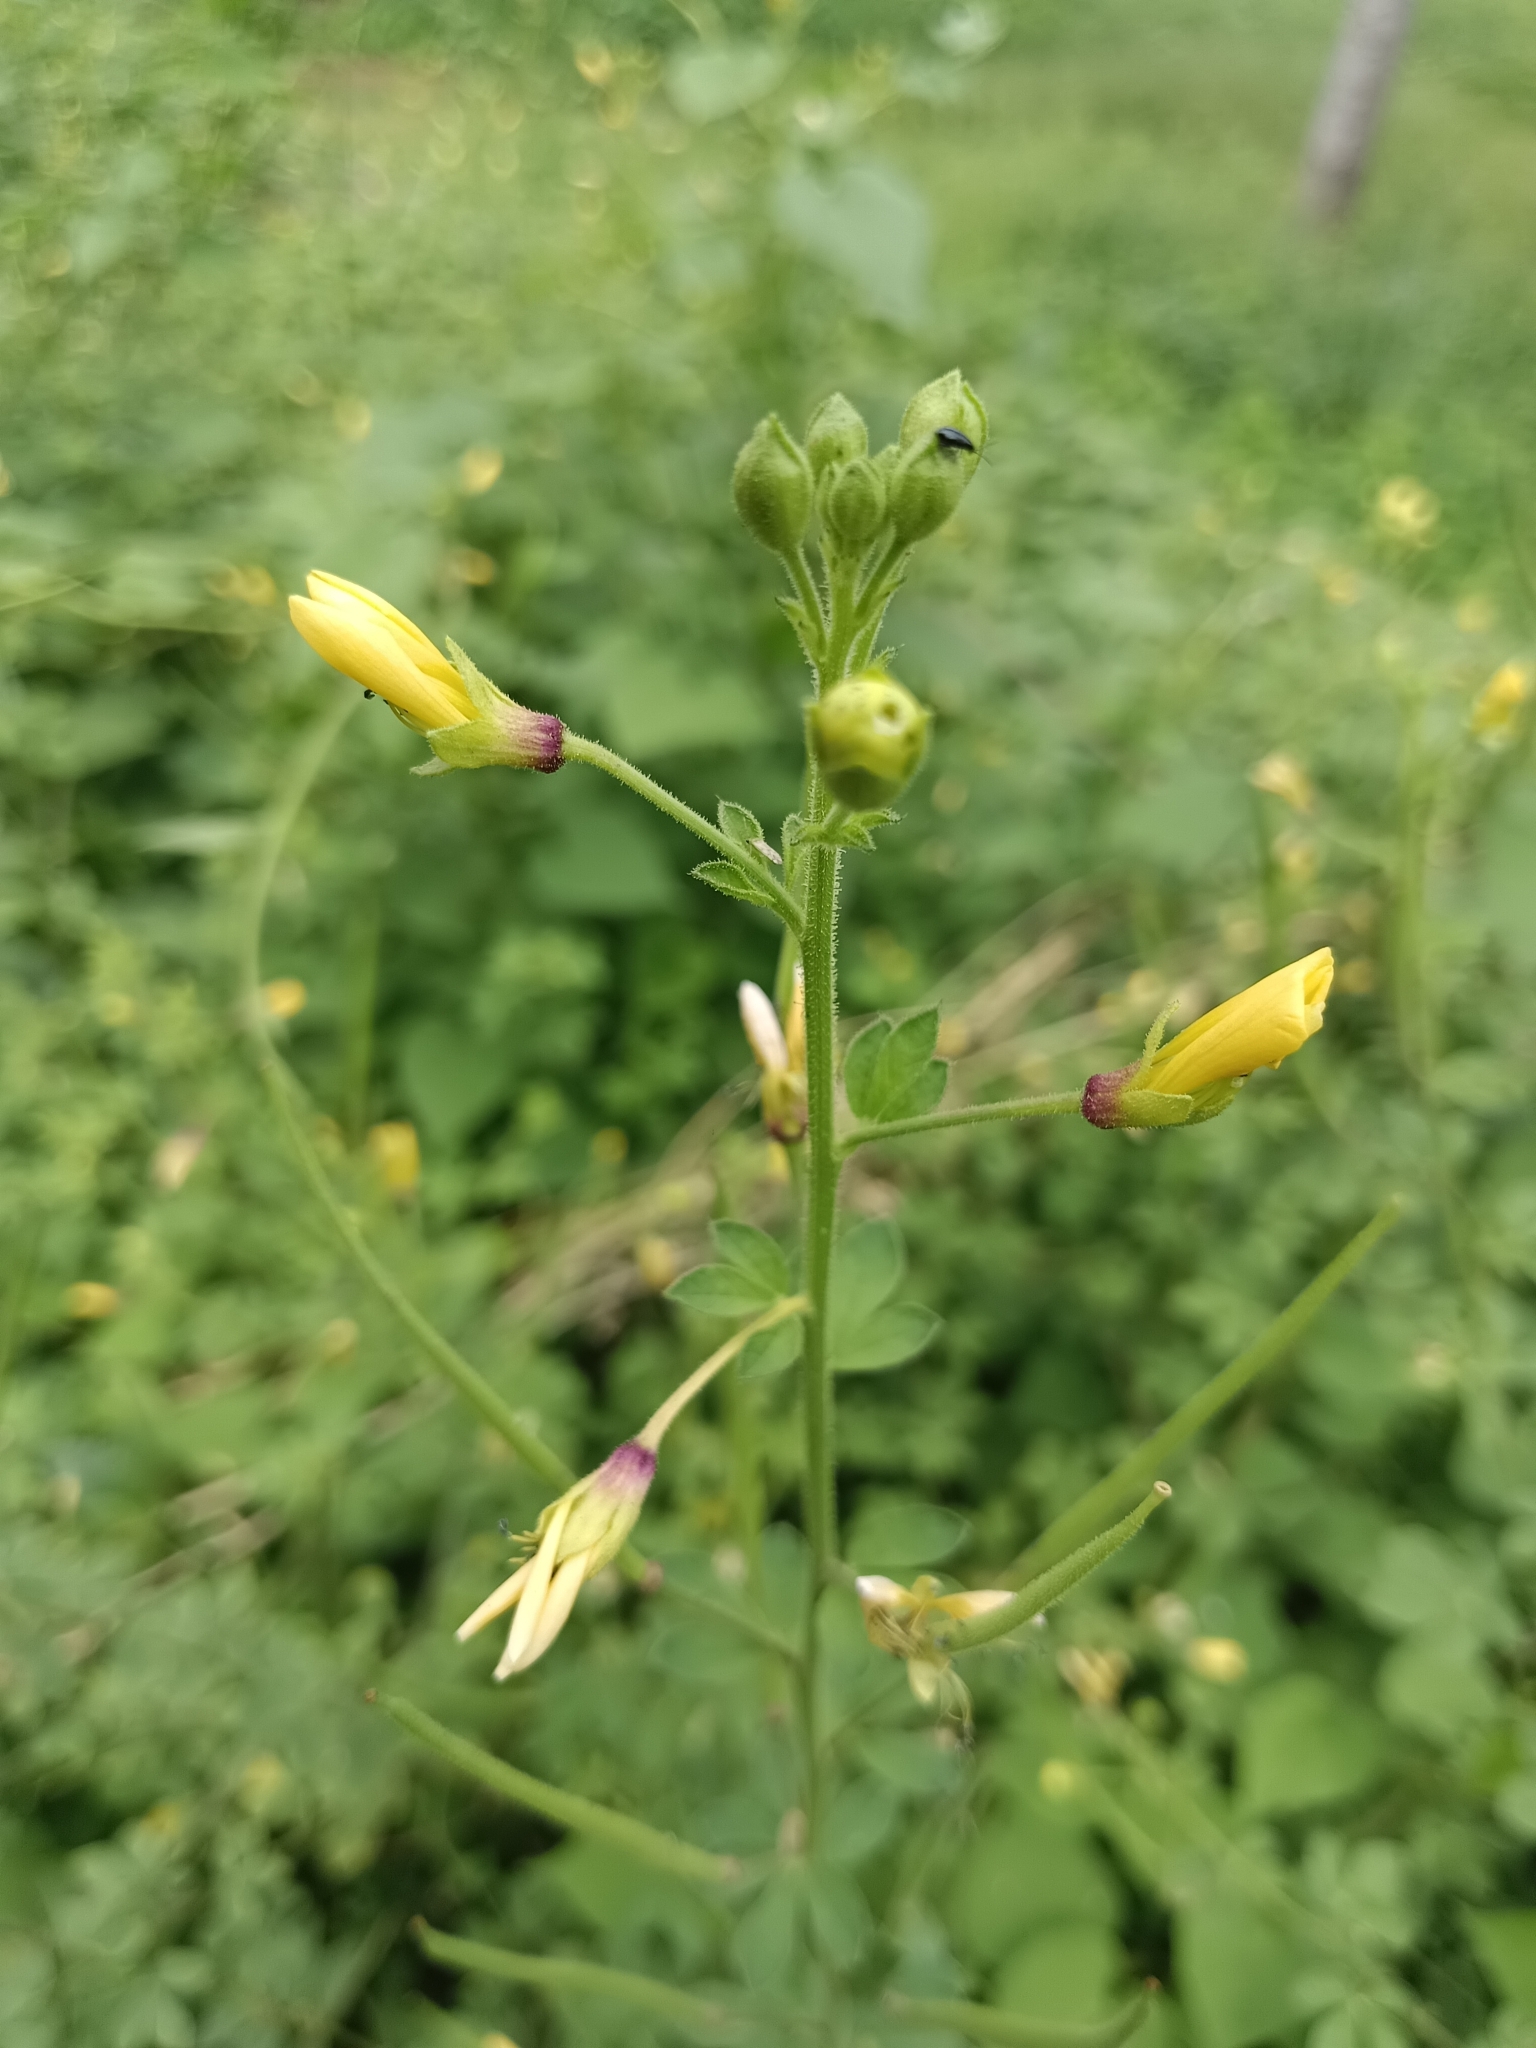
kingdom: Plantae
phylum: Tracheophyta
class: Magnoliopsida
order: Brassicales
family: Cleomaceae
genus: Arivela
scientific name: Arivela viscosa
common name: Asian spiderflower
